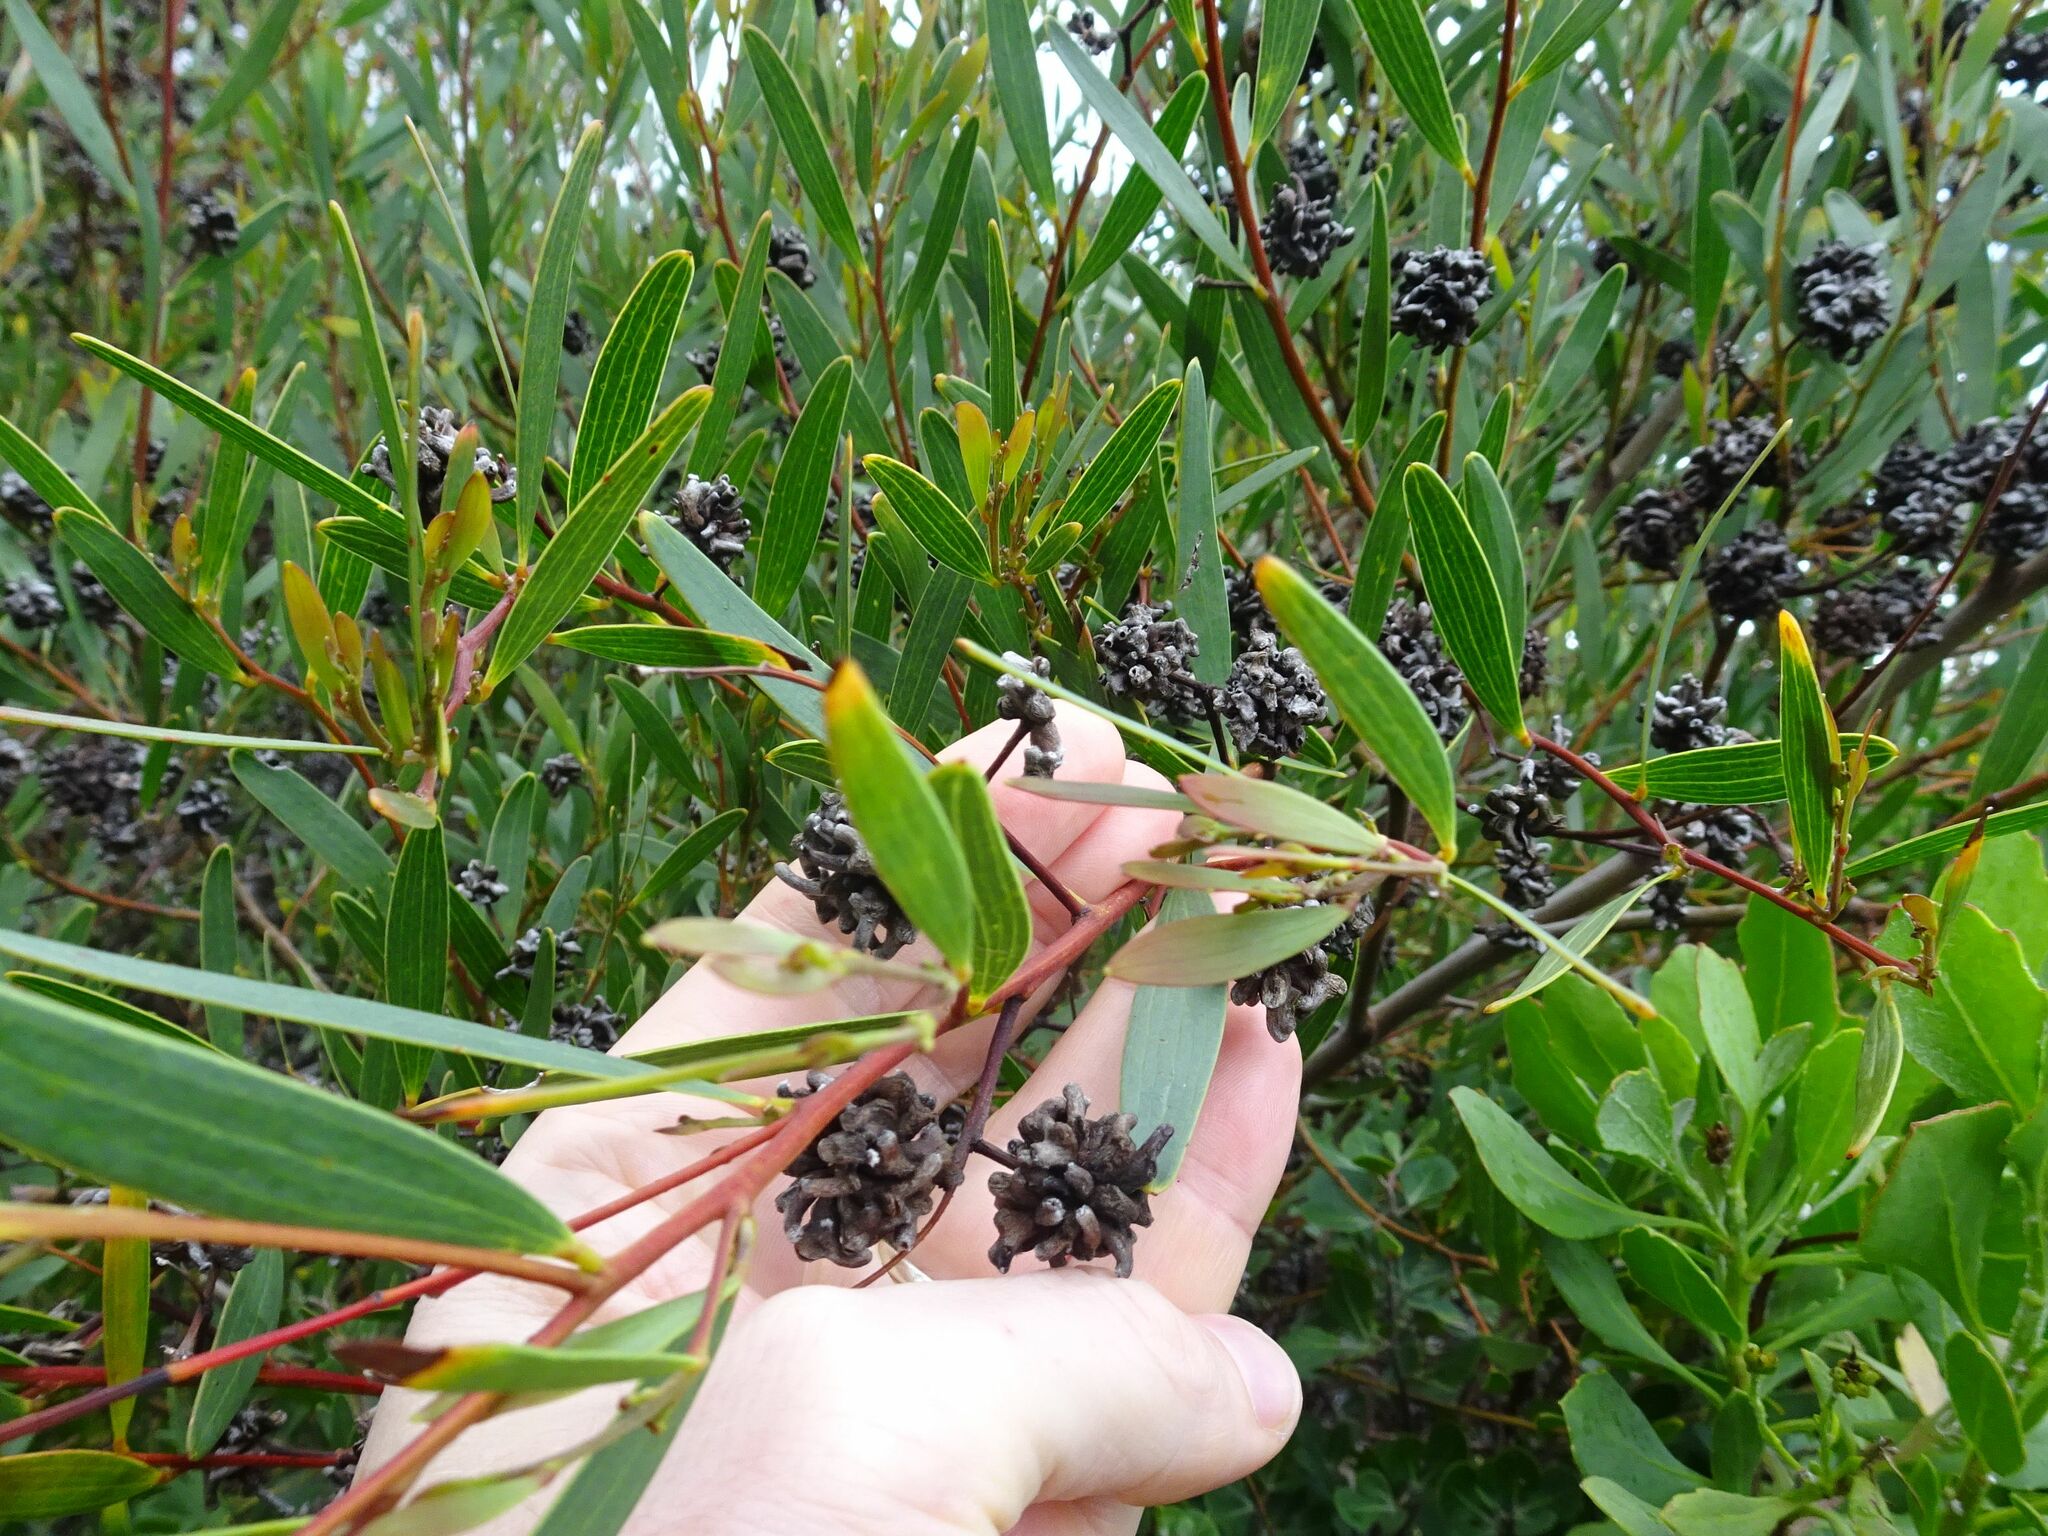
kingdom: Animalia
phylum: Arthropoda
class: Insecta
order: Diptera
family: Cecidomyiidae
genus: Dasineura
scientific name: Dasineura dielsi
